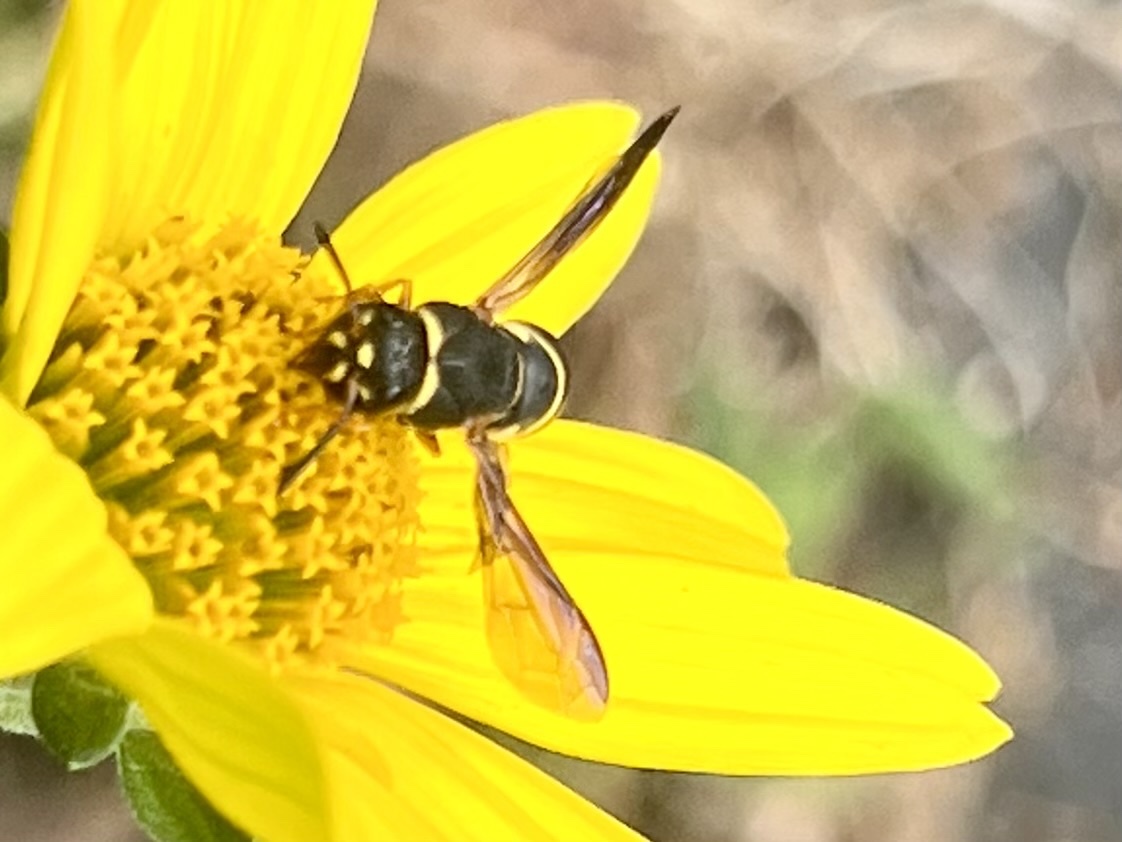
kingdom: Animalia
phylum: Arthropoda
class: Insecta
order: Hymenoptera
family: Eumenidae
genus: Euodynerus
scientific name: Euodynerus hidalgo
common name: Wasp
